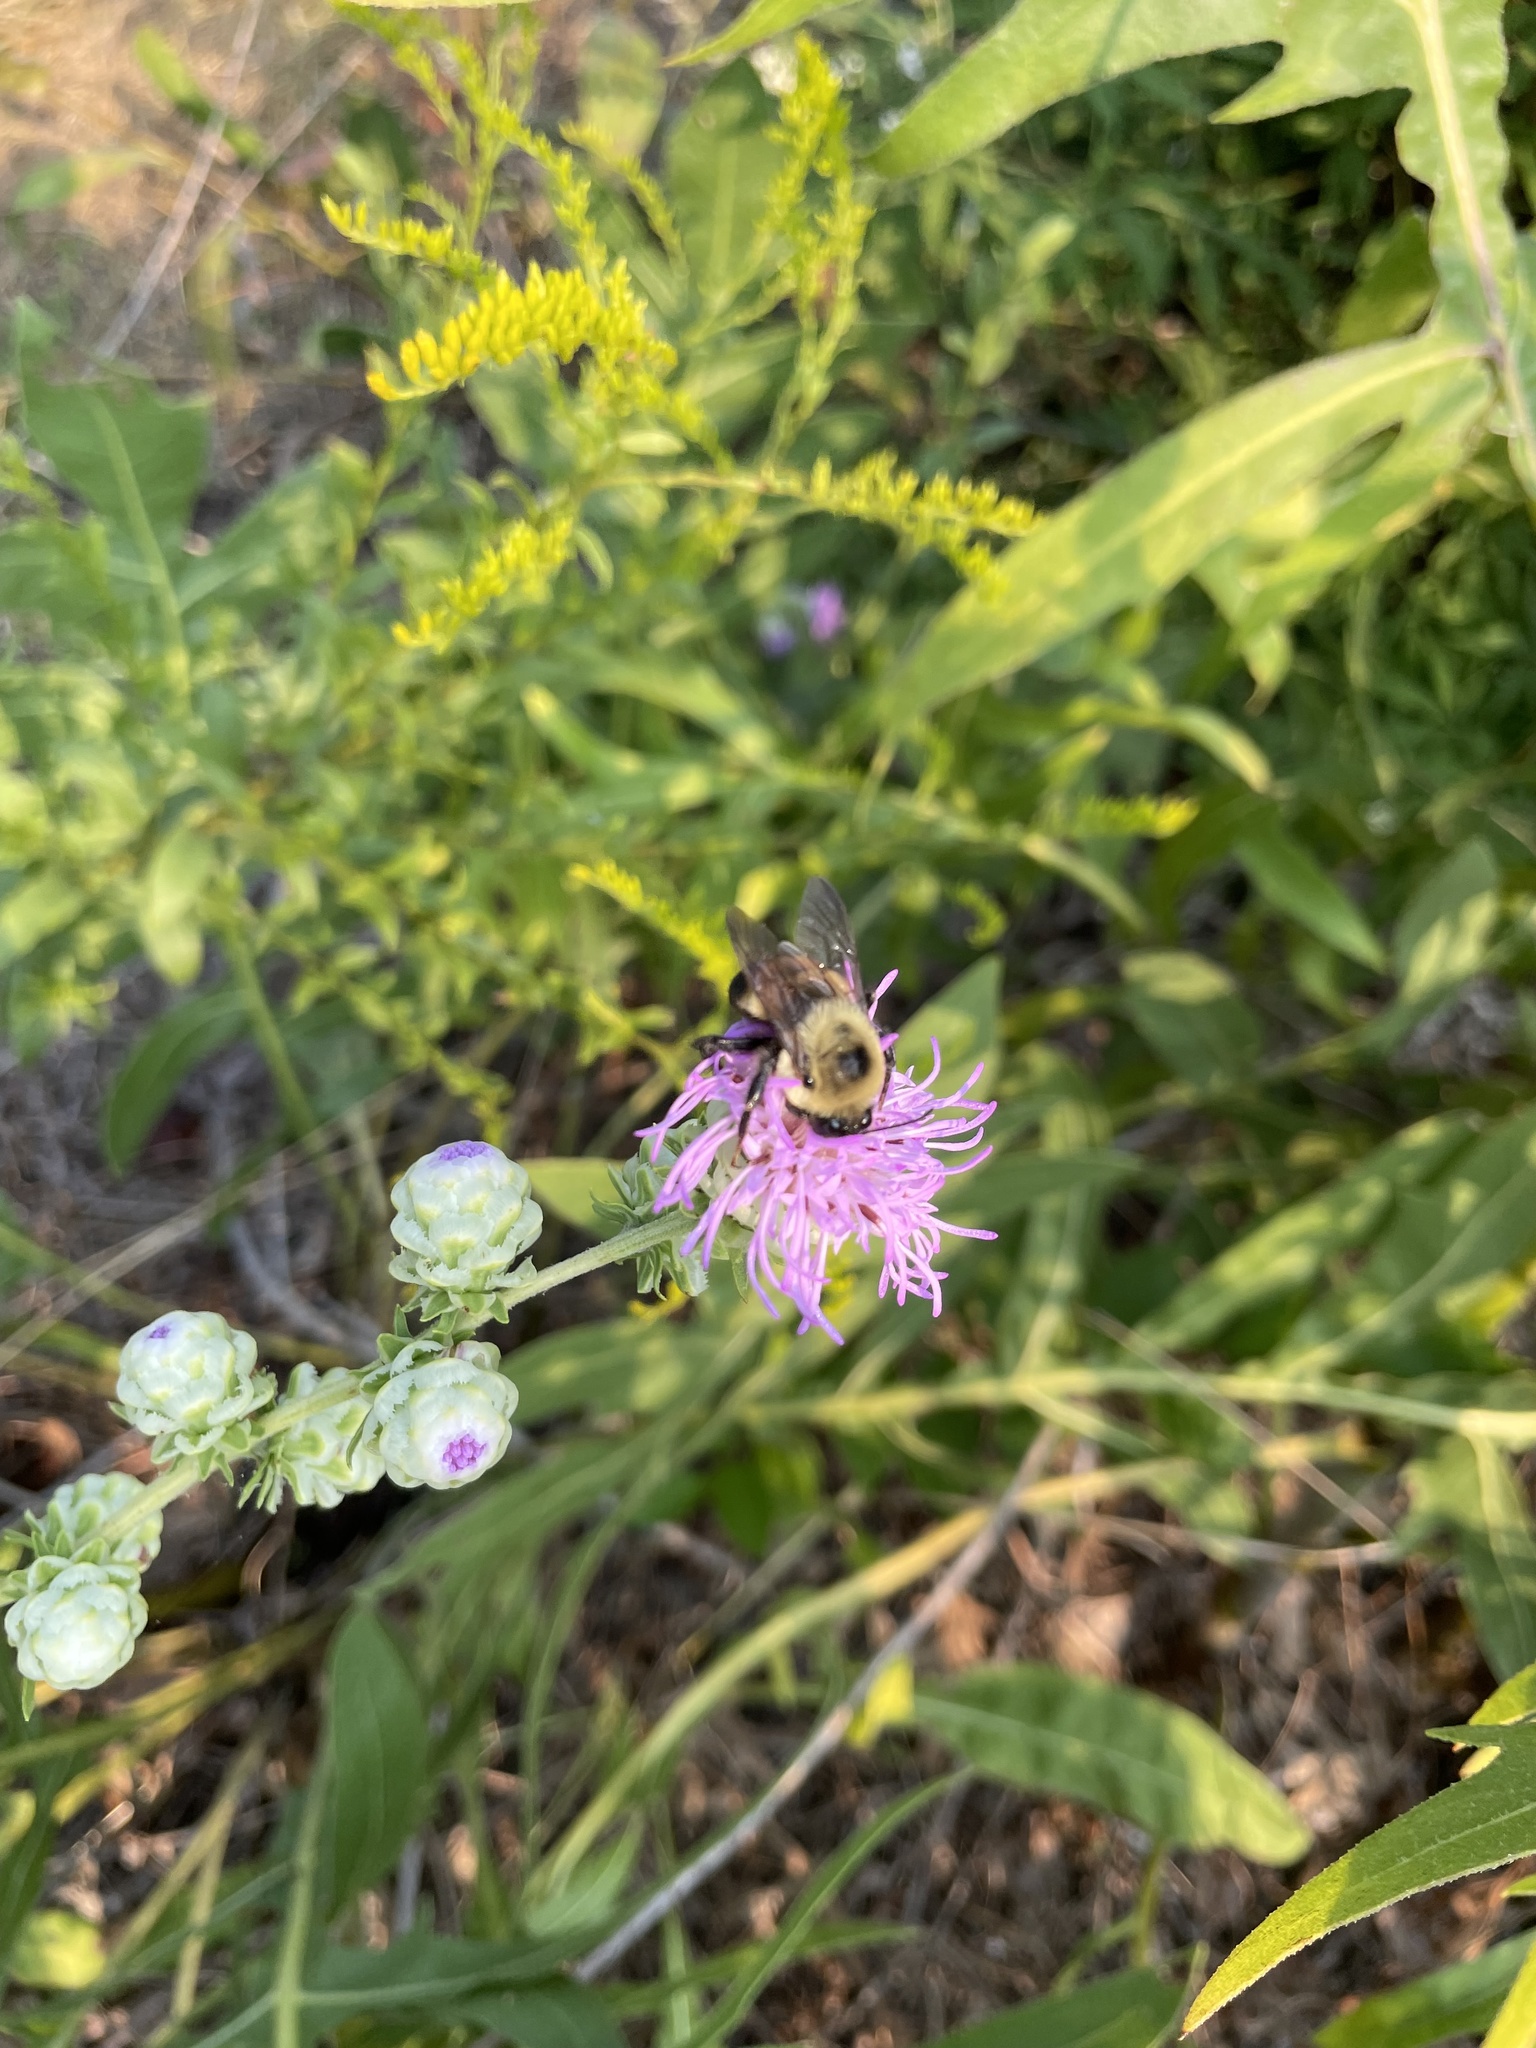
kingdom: Animalia
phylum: Arthropoda
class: Insecta
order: Hymenoptera
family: Apidae
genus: Bombus
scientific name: Bombus griseocollis
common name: Brown-belted bumble bee
